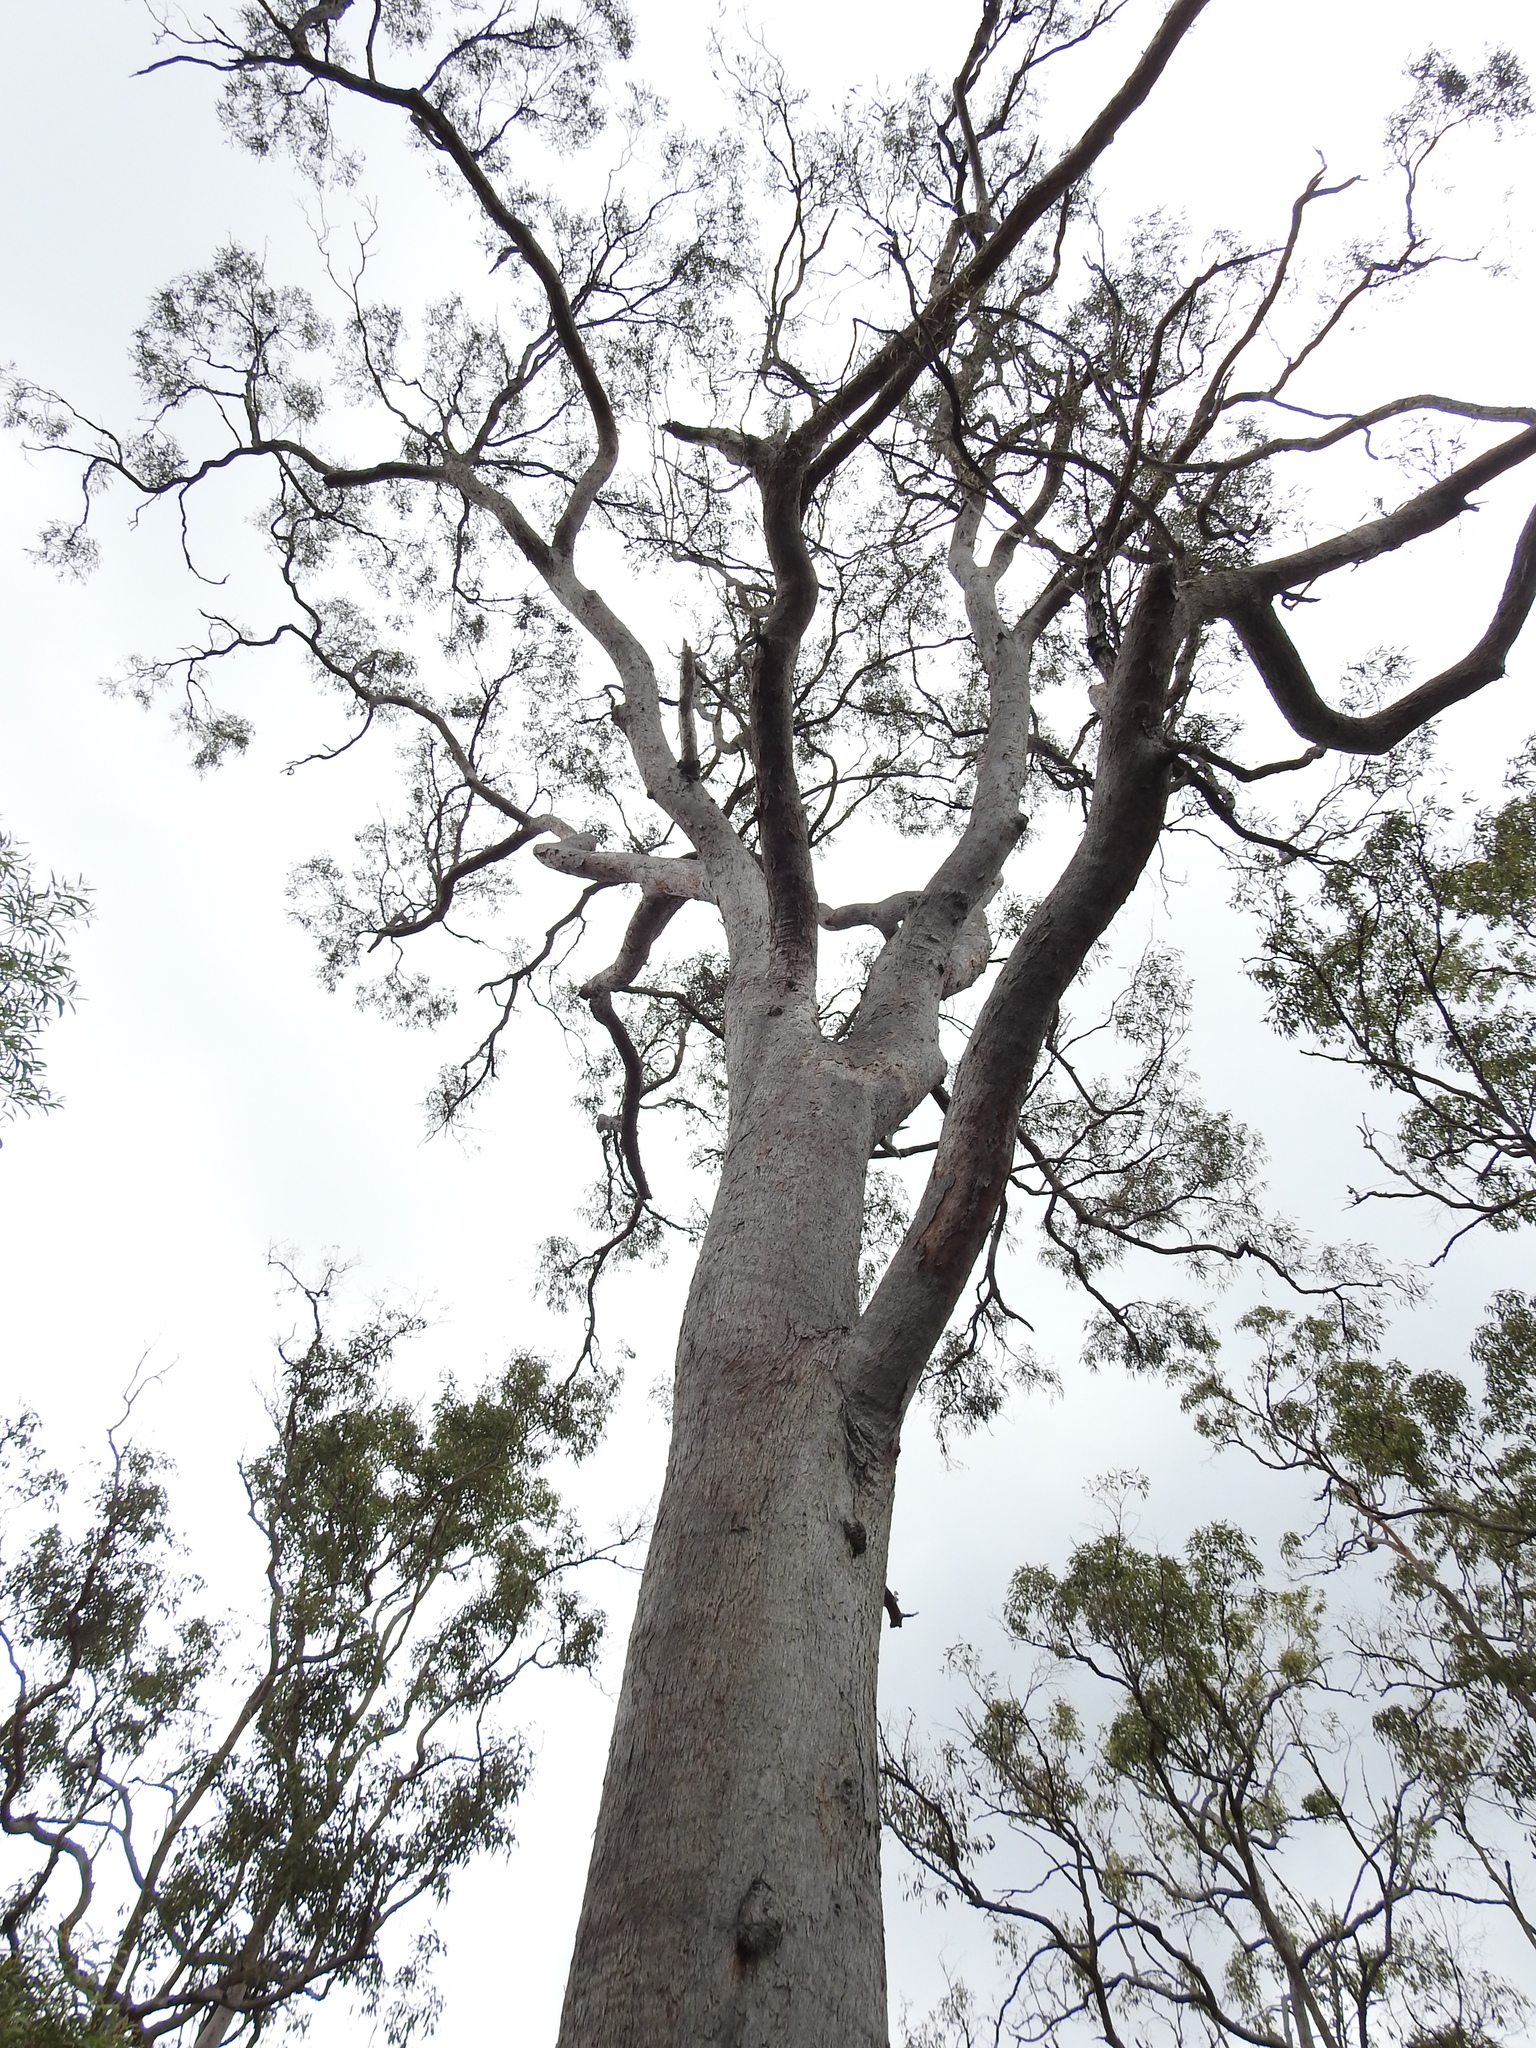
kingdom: Plantae
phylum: Tracheophyta
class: Magnoliopsida
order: Myrtales
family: Myrtaceae
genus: Eucalyptus
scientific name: Eucalyptus exserta
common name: Peppermint-bendo
